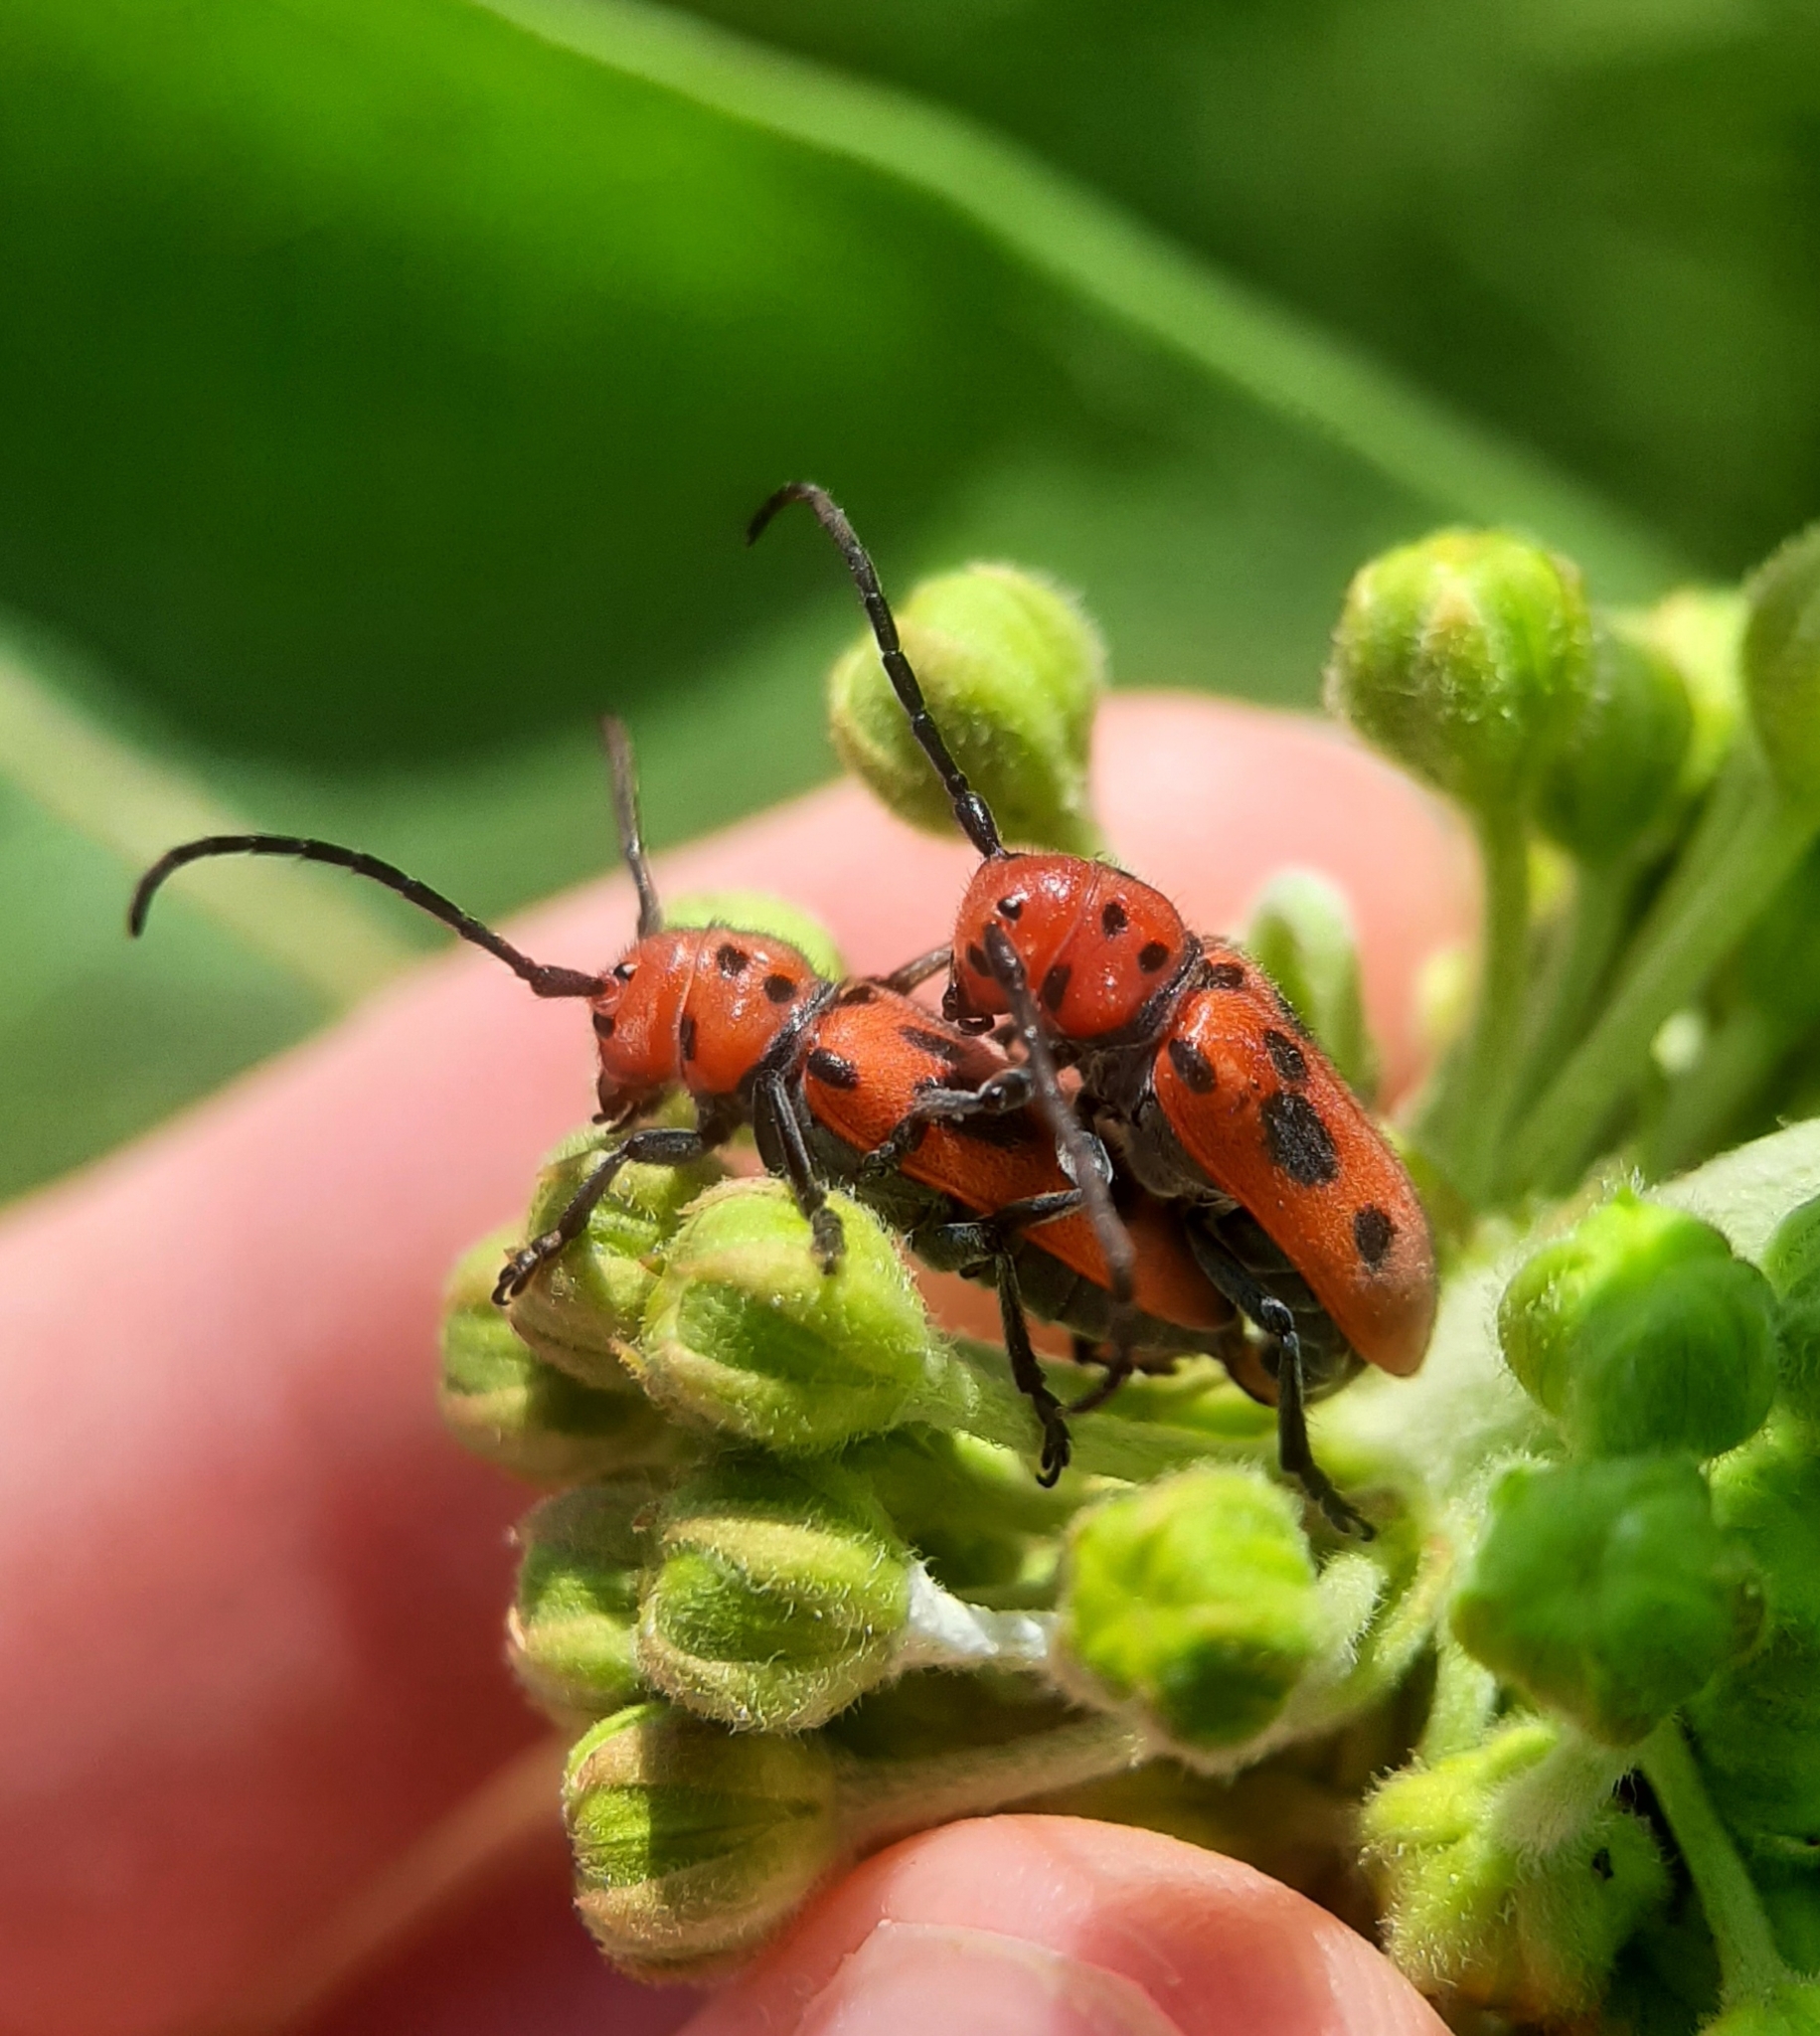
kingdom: Animalia
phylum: Arthropoda
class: Insecta
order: Coleoptera
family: Cerambycidae
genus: Tetraopes
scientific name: Tetraopes tetrophthalmus
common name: Red milkweed beetle
